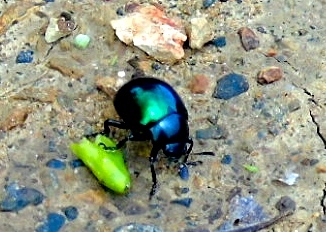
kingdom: Animalia
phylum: Arthropoda
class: Insecta
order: Coleoptera
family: Chrysomelidae
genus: Leptinotarsa
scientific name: Leptinotarsa haldemani
